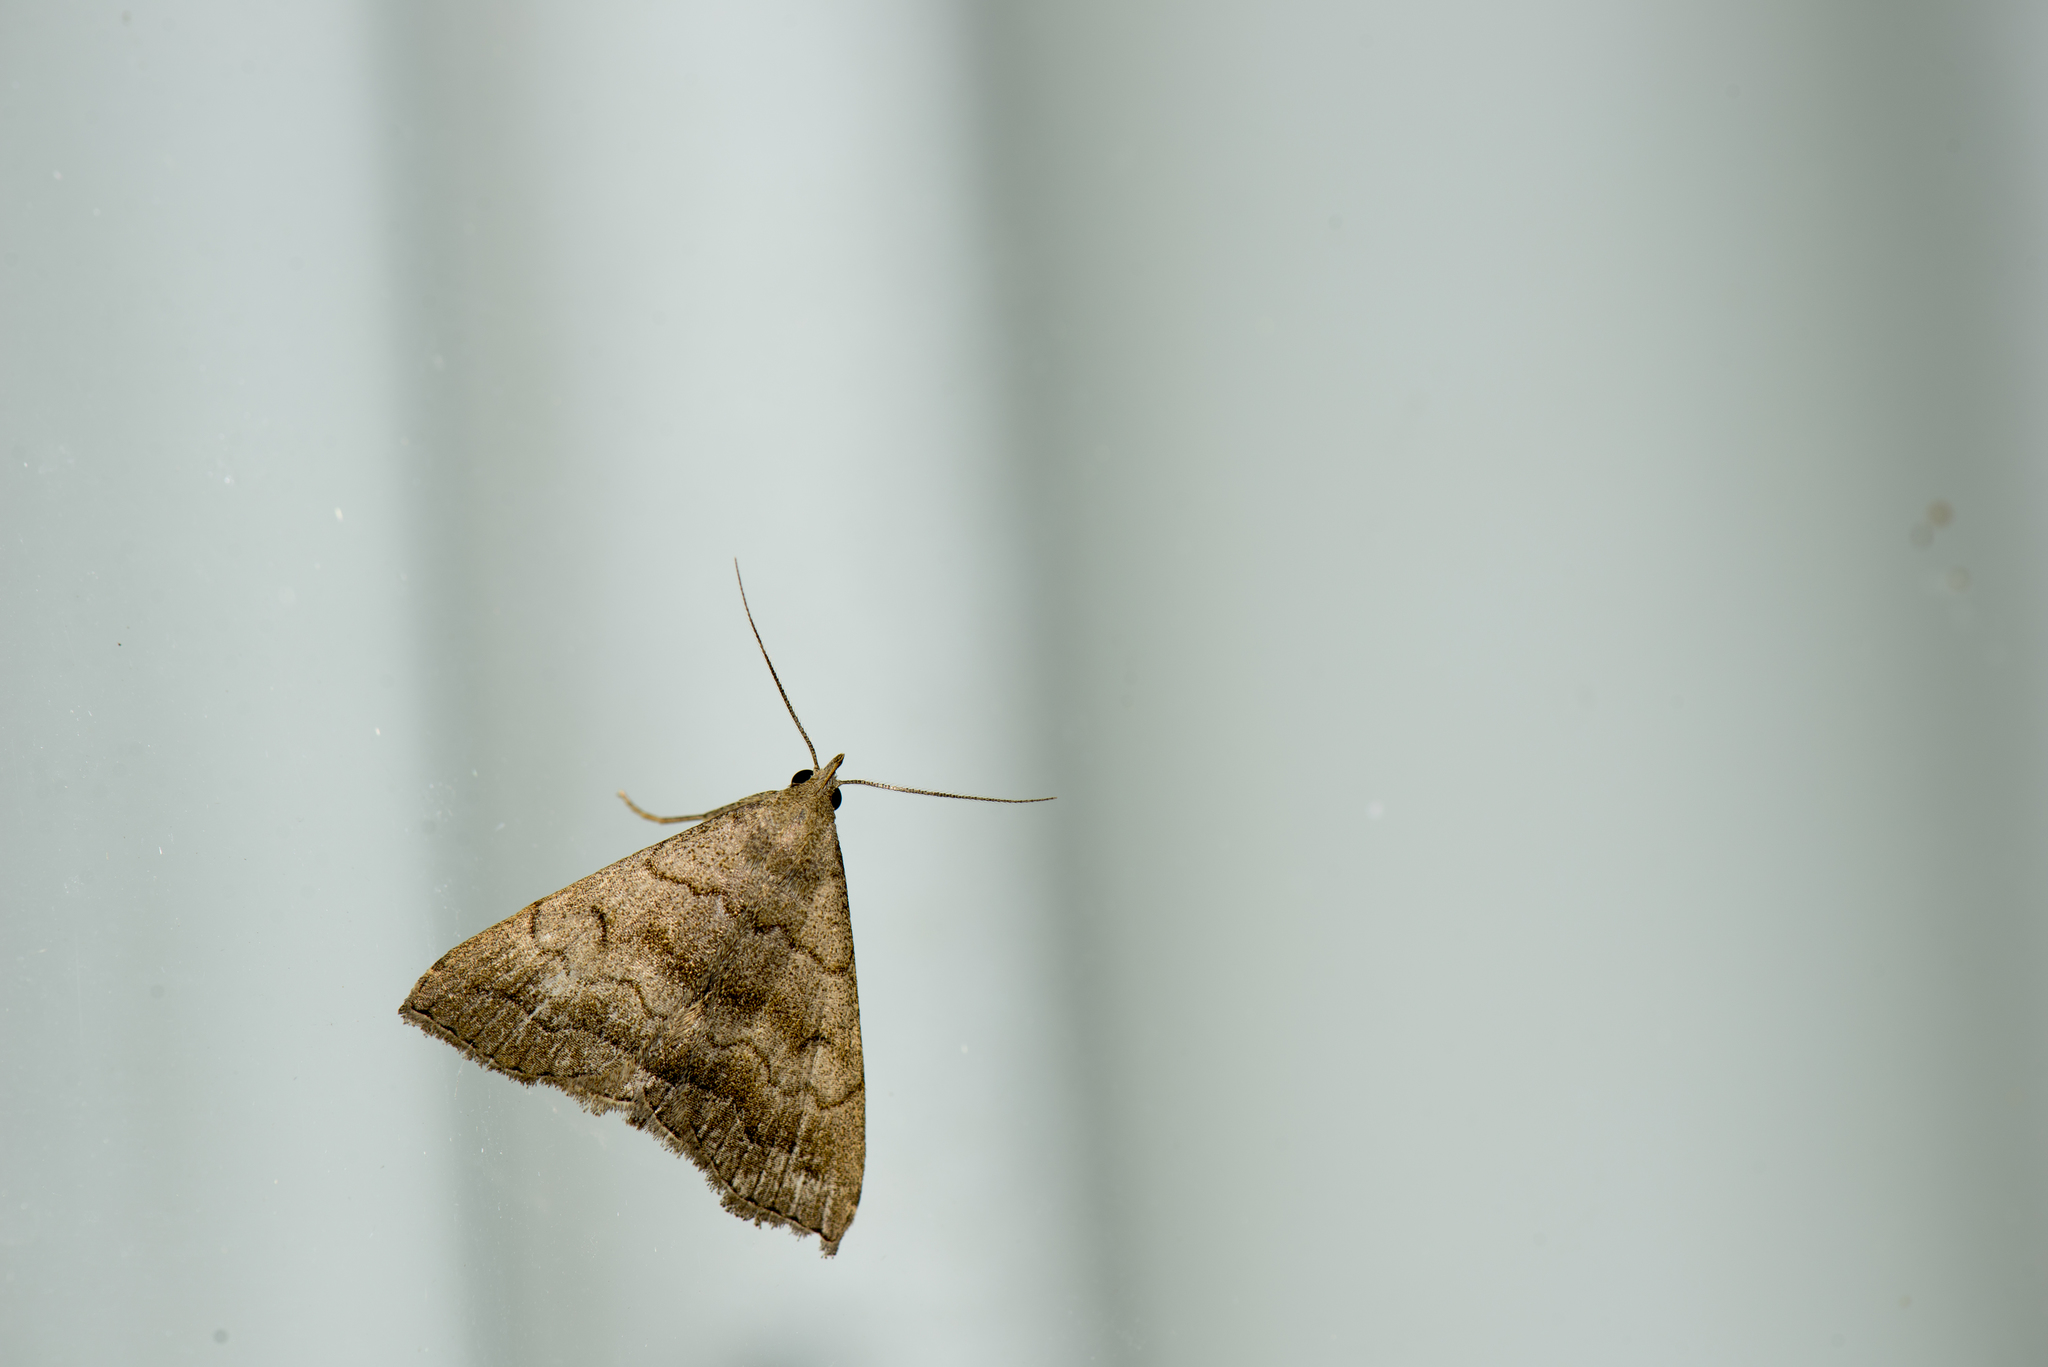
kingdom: Animalia
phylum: Arthropoda
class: Insecta
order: Lepidoptera
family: Erebidae
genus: Herminia
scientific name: Herminia vermiculata
